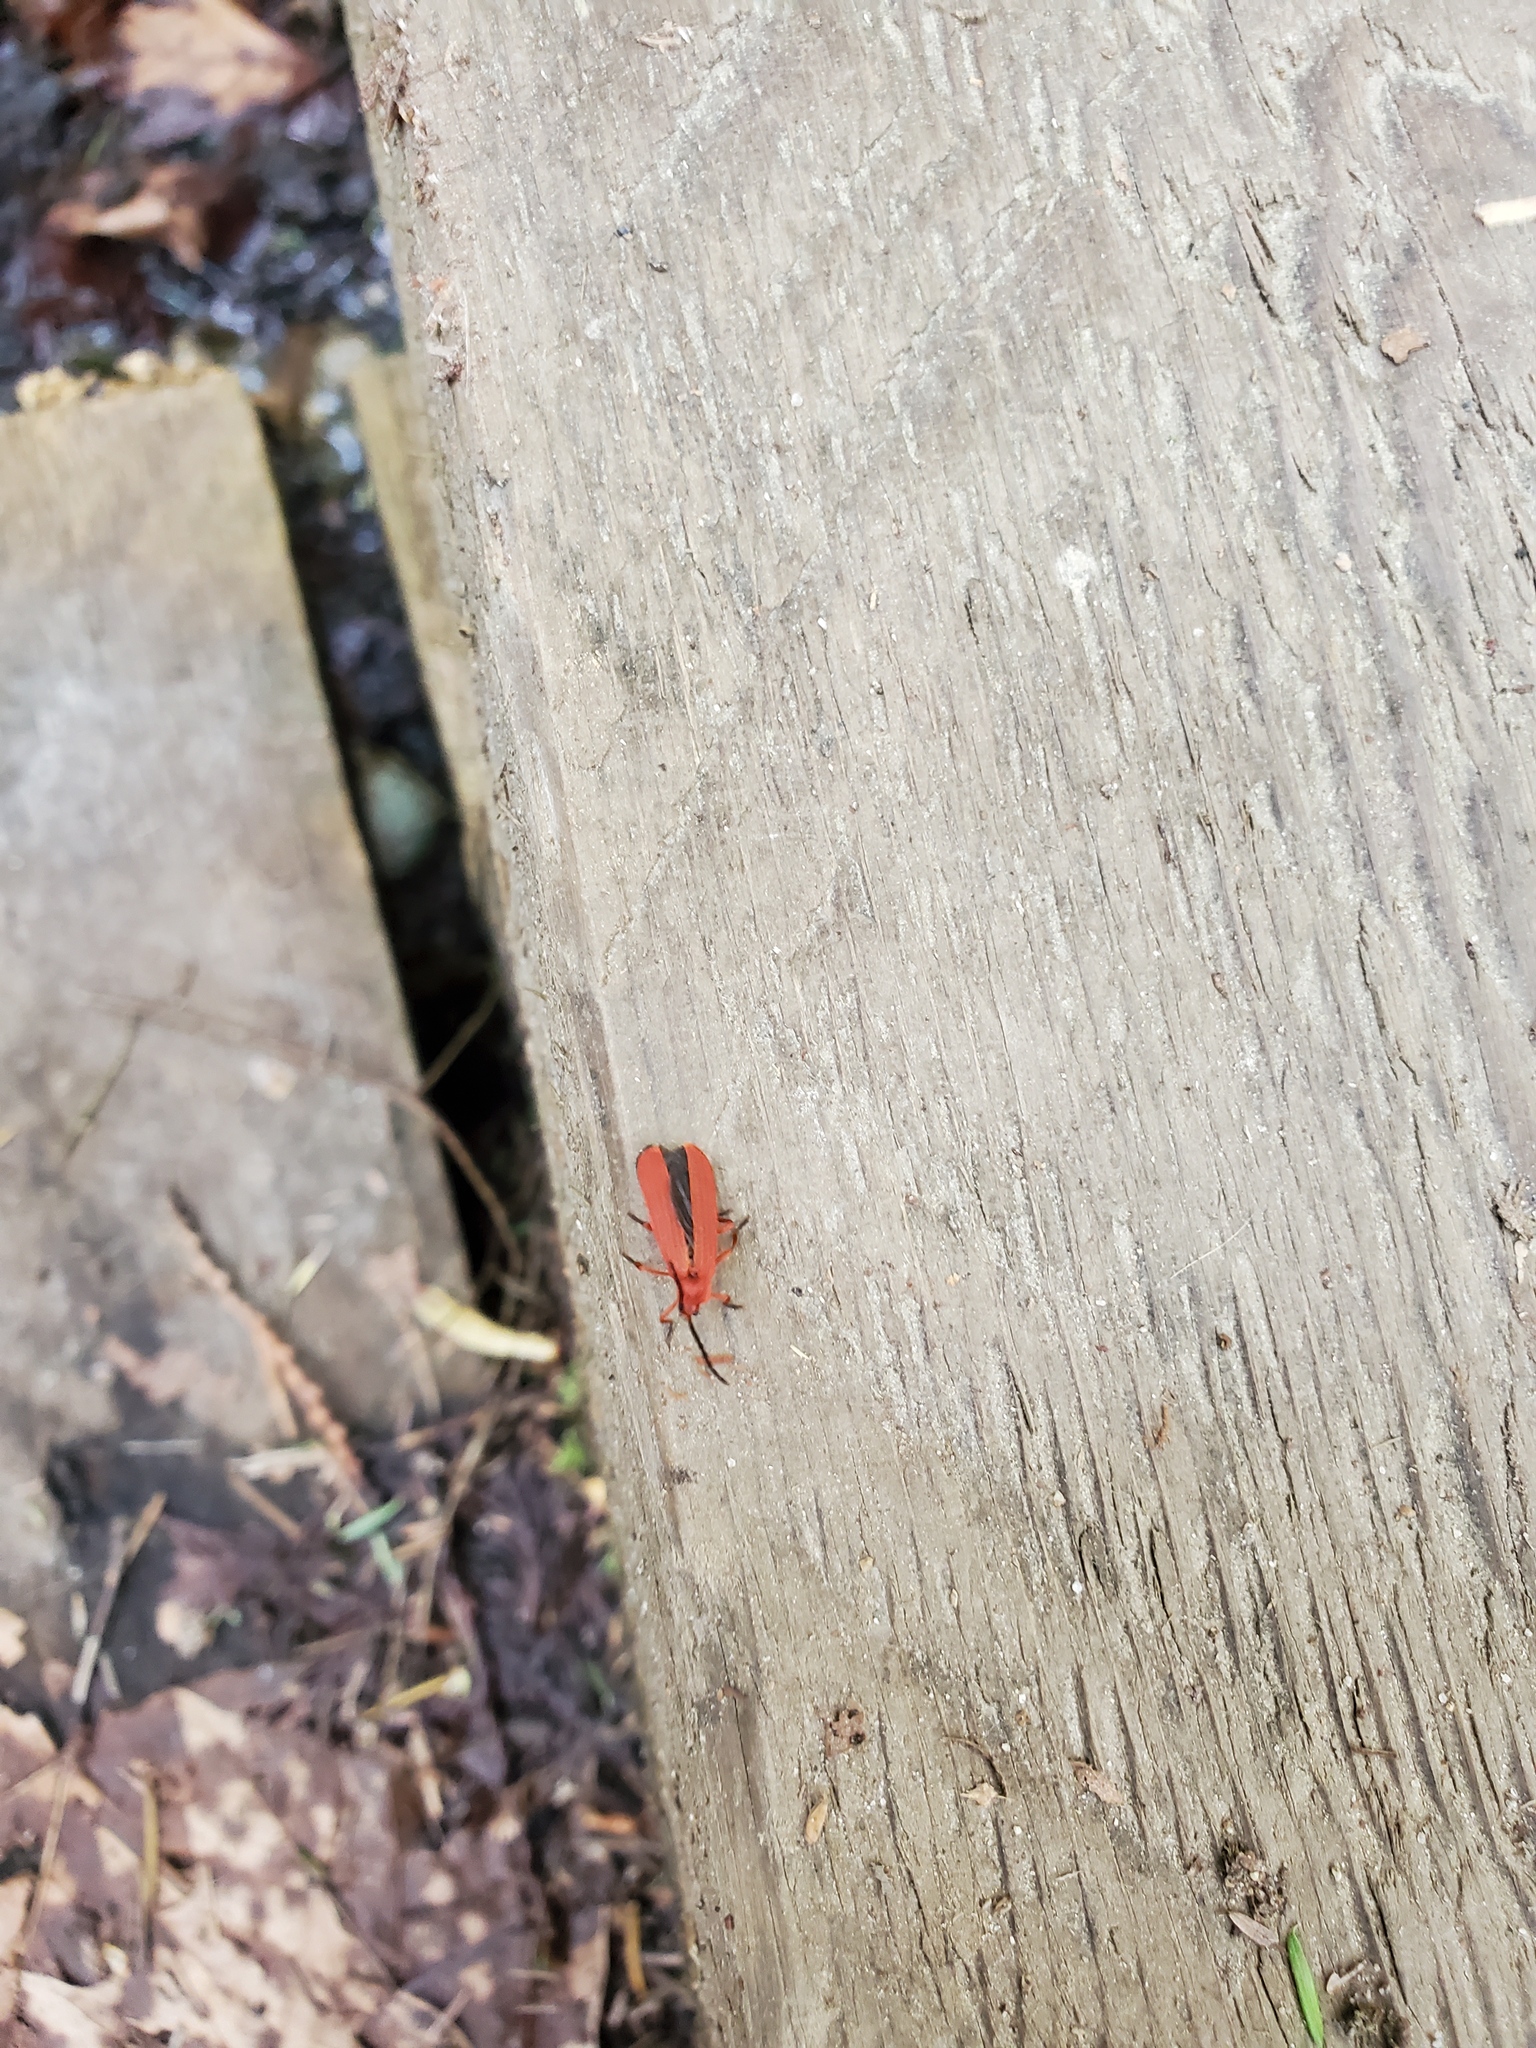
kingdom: Animalia
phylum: Arthropoda
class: Insecta
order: Coleoptera
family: Lycidae
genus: Punicealis
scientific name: Punicealis hamata
